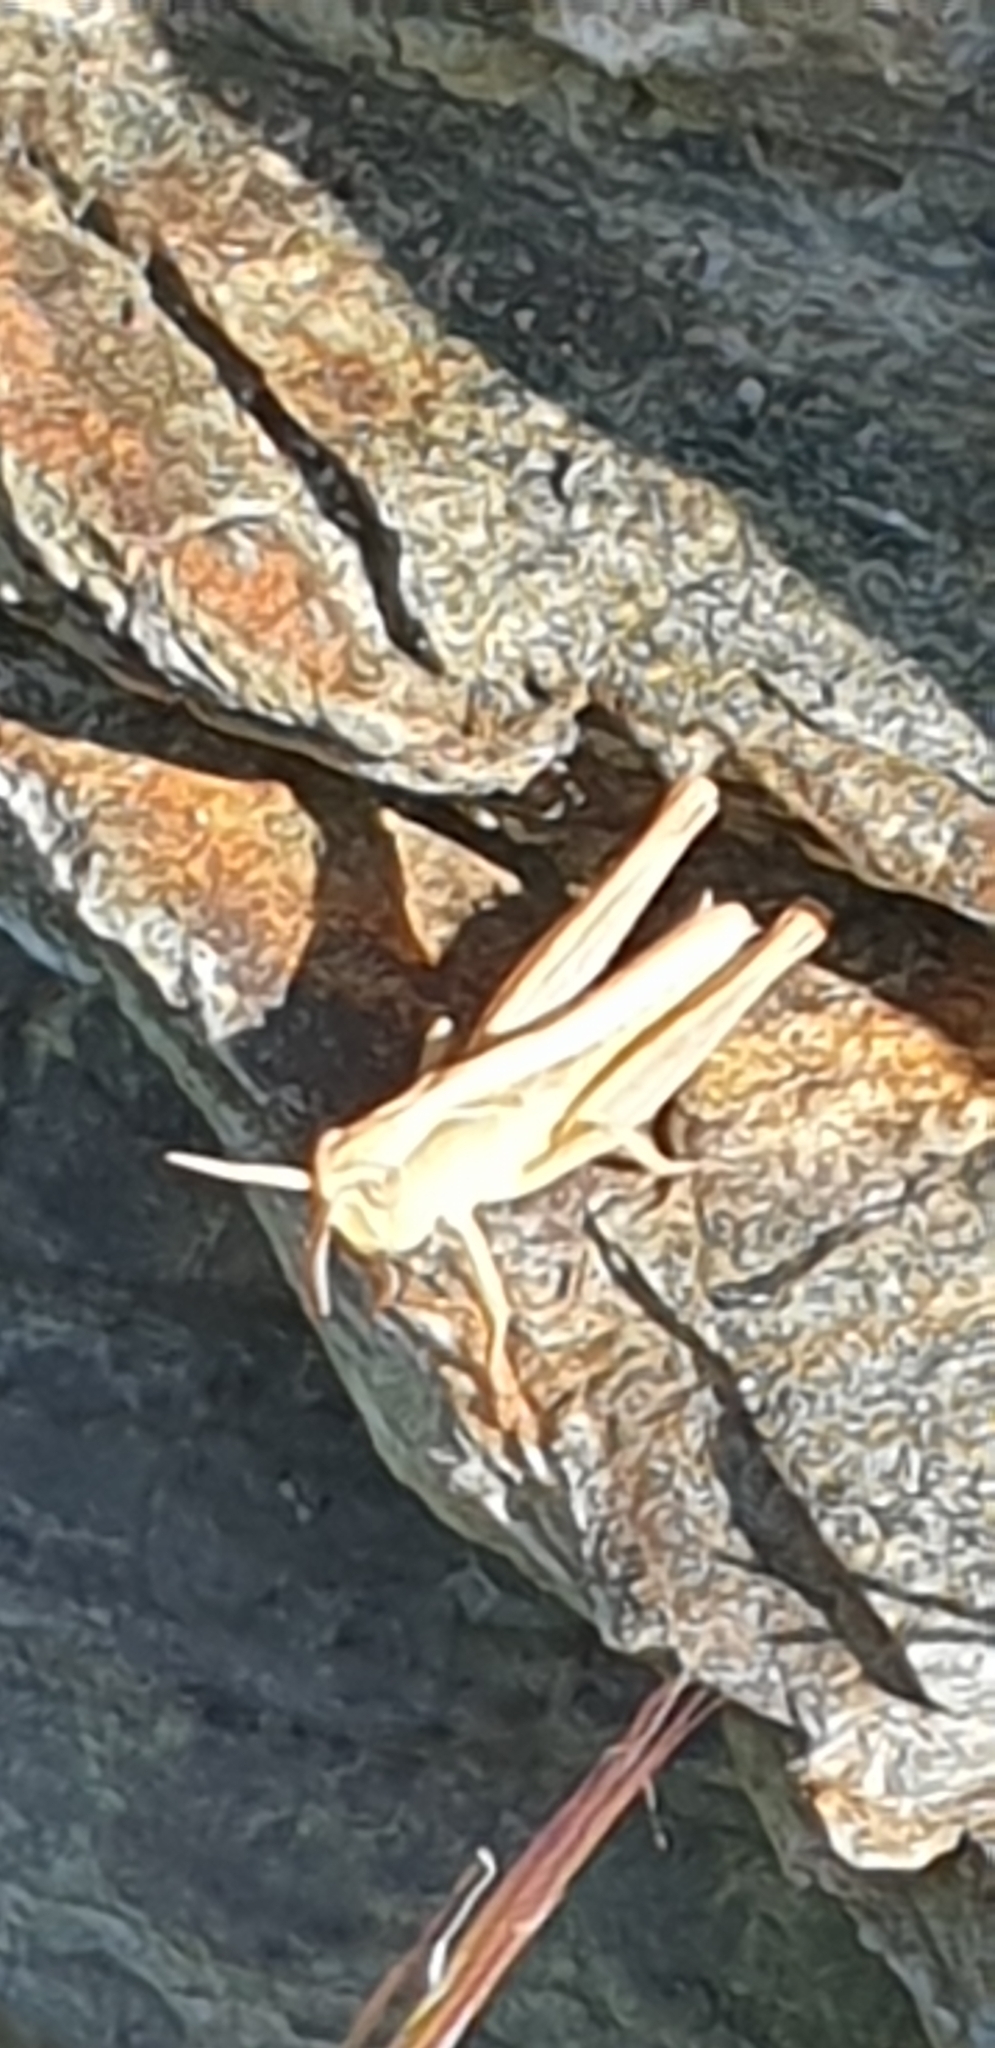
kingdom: Animalia
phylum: Arthropoda
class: Insecta
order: Orthoptera
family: Acrididae
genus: Chorthippus
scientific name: Chorthippus brunneus
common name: Field grasshopper
